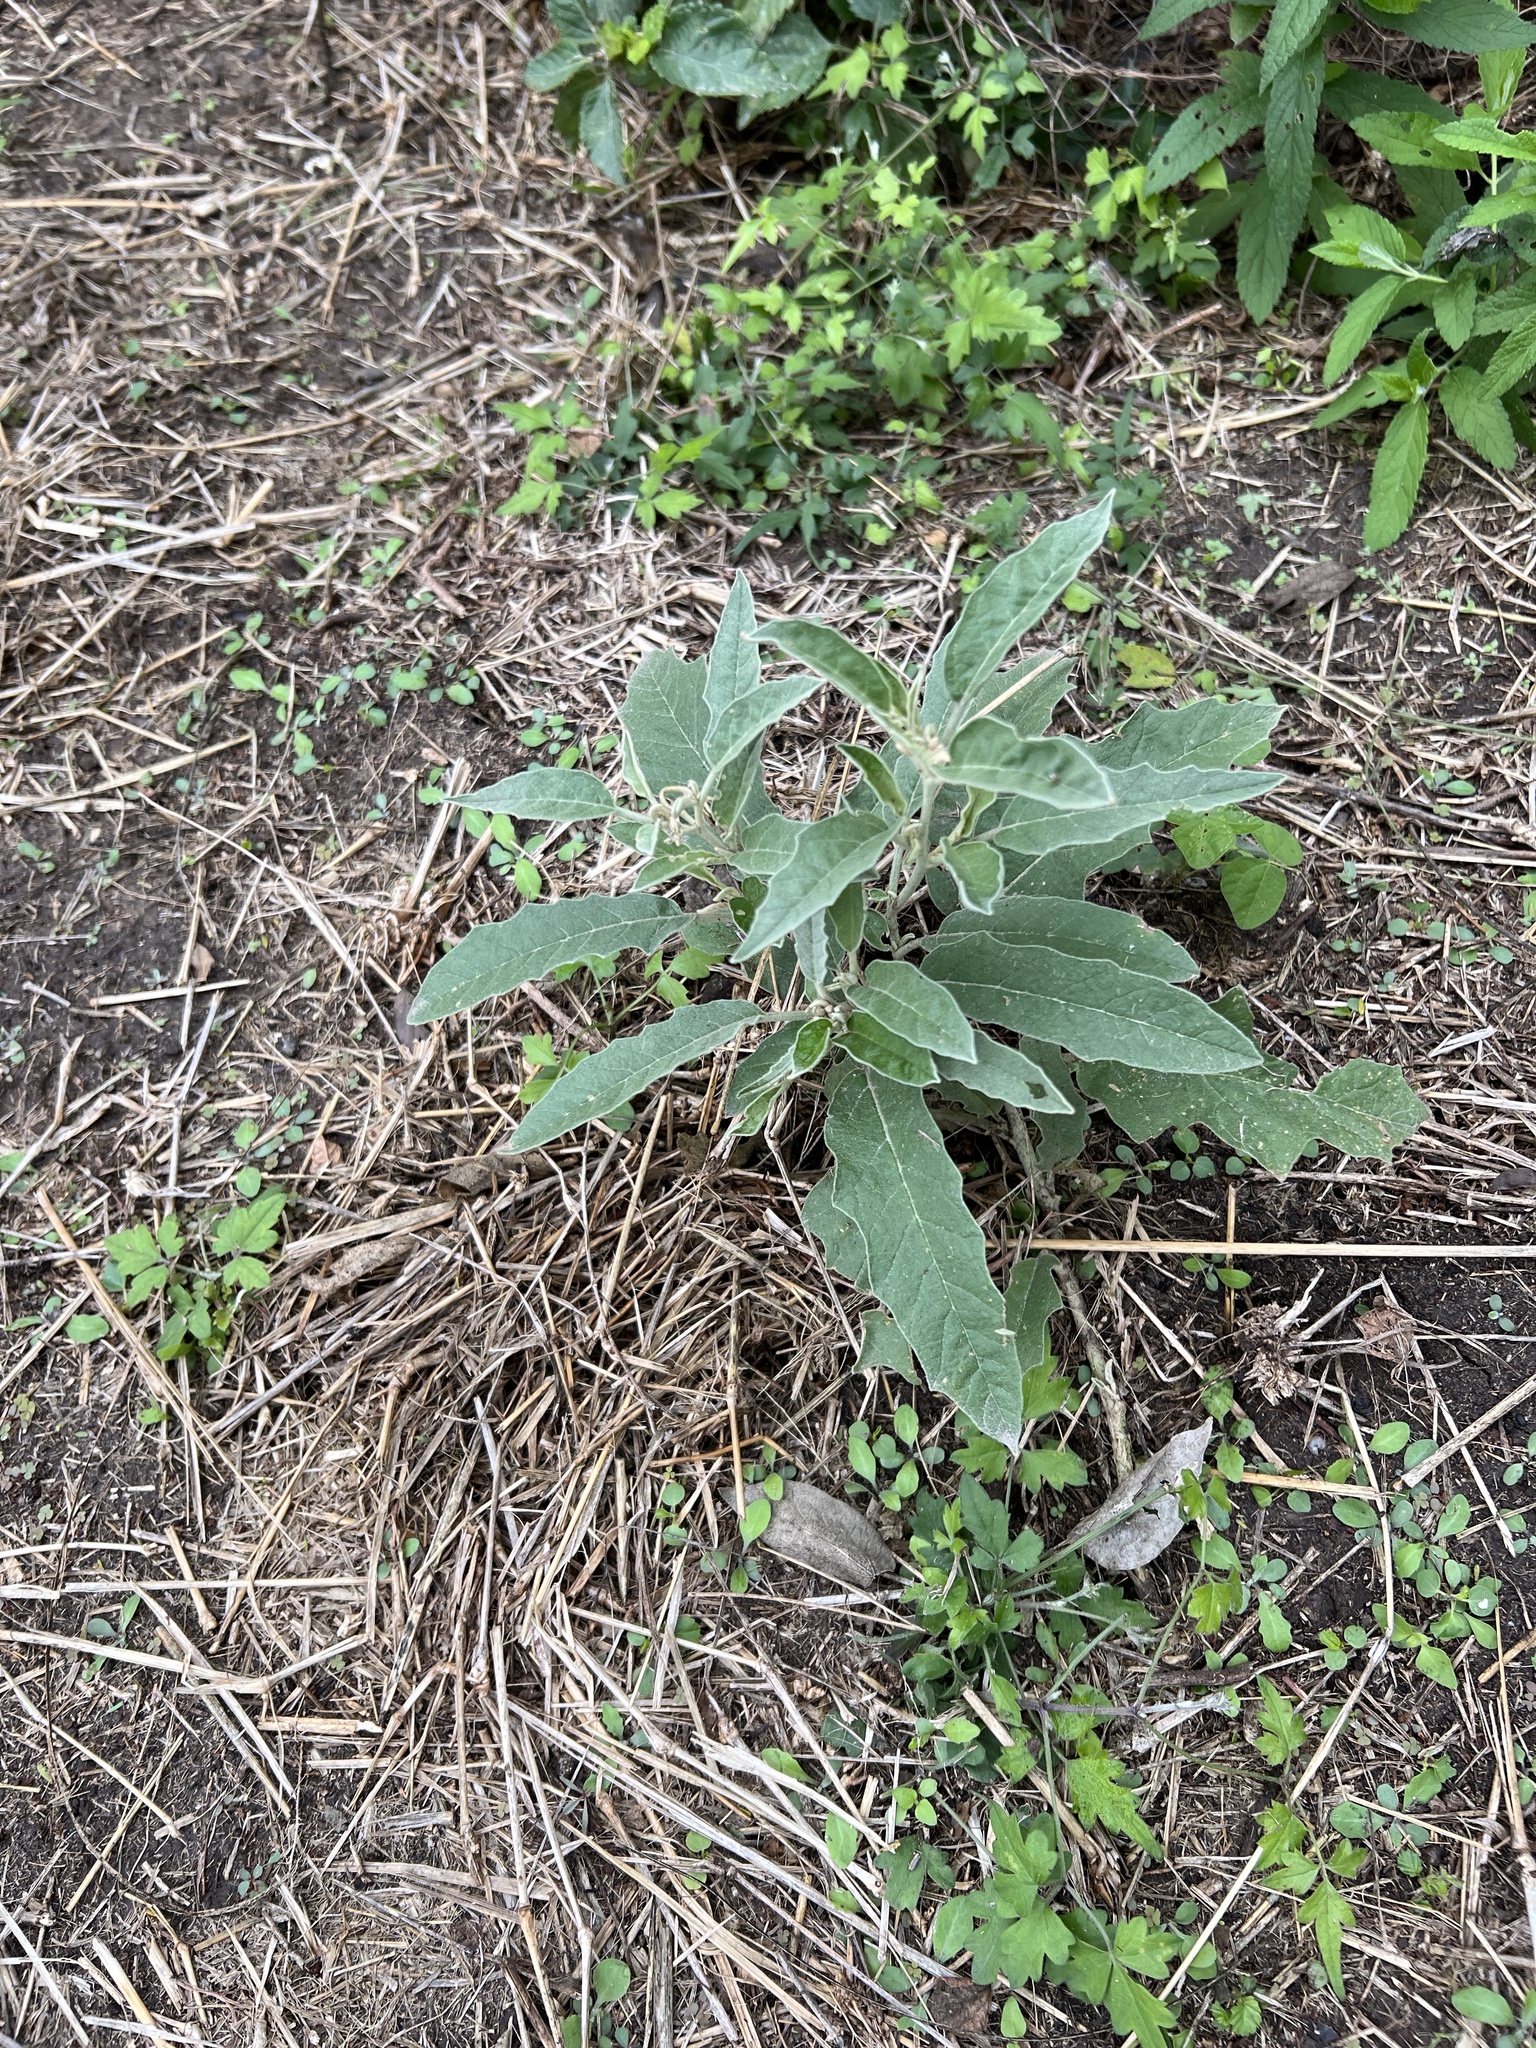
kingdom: Plantae
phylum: Tracheophyta
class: Magnoliopsida
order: Solanales
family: Solanaceae
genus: Solanum
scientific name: Solanum elaeagnifolium
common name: Silverleaf nightshade
